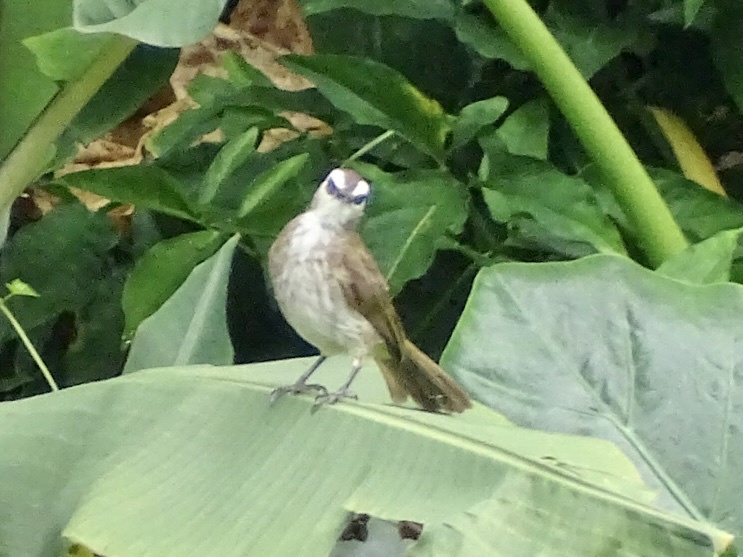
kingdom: Animalia
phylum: Chordata
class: Aves
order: Passeriformes
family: Pycnonotidae
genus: Pycnonotus
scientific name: Pycnonotus goiavier
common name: Yellow-vented bulbul
